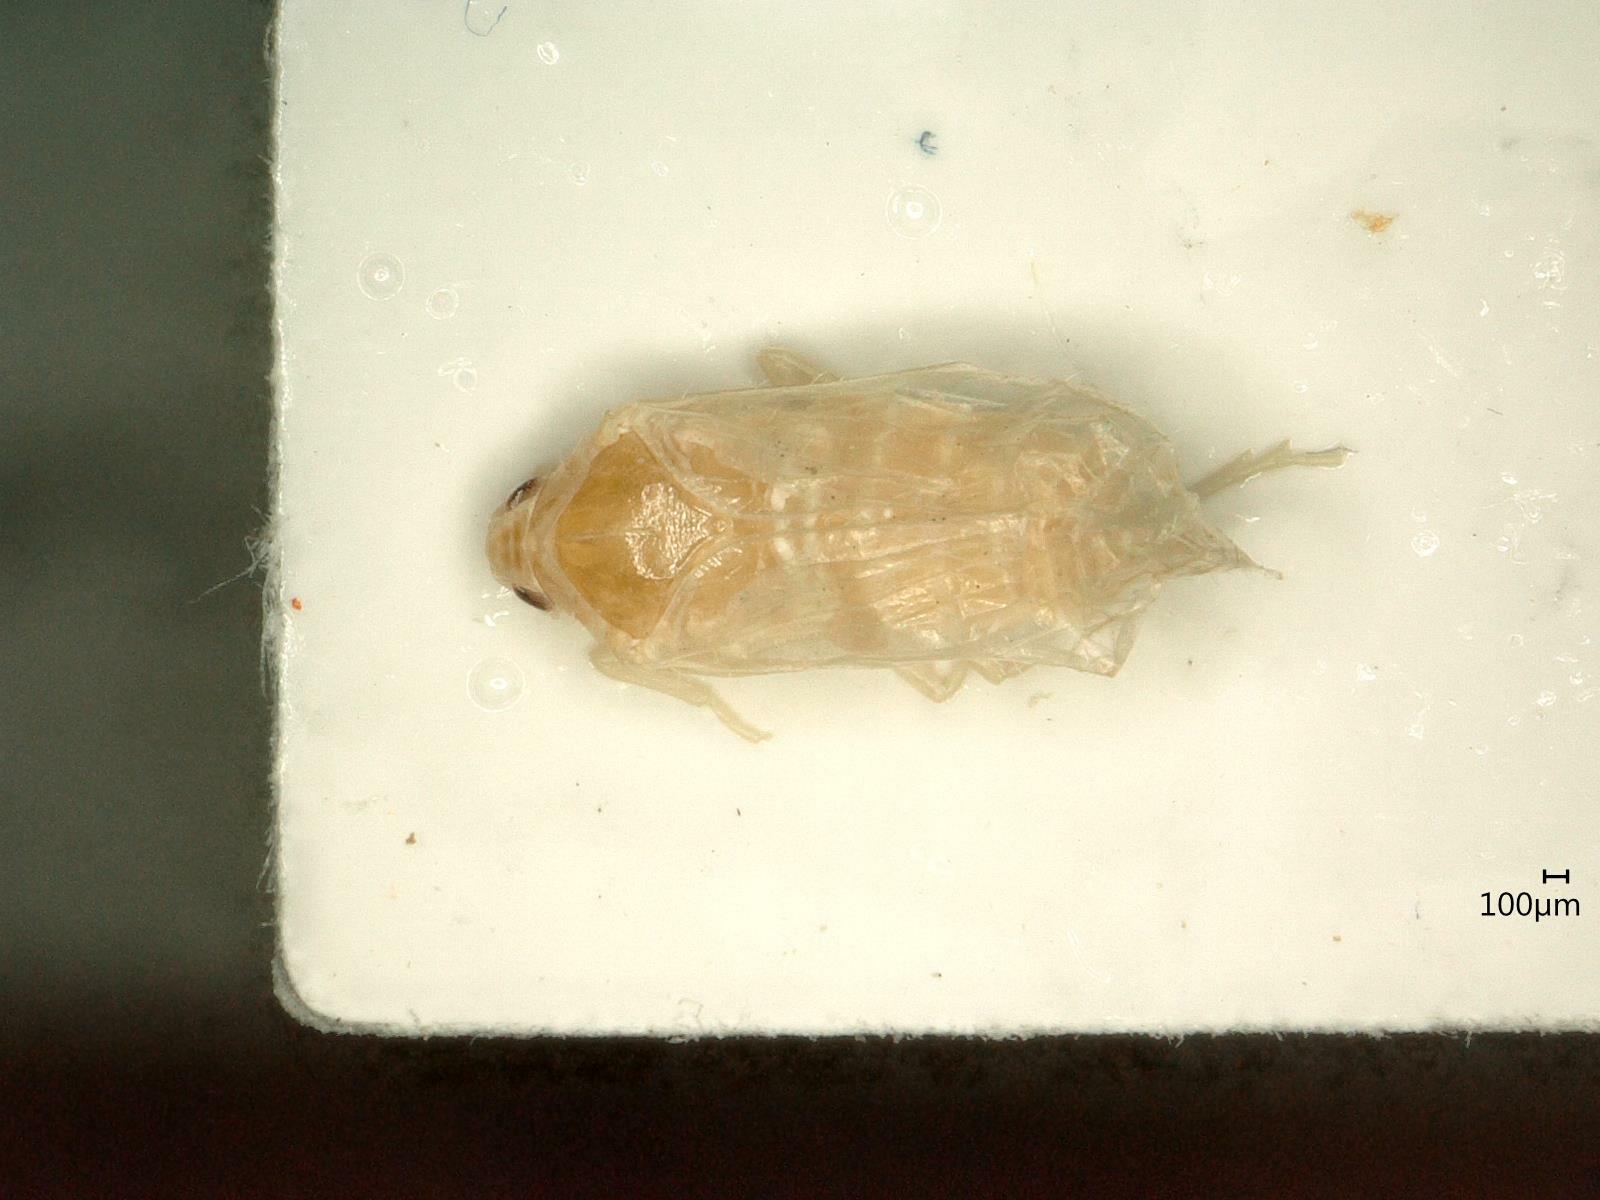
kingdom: Animalia
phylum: Arthropoda
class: Insecta
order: Hemiptera
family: Cixiidae
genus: Trigonocranus
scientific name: Trigonocranus emmeae
